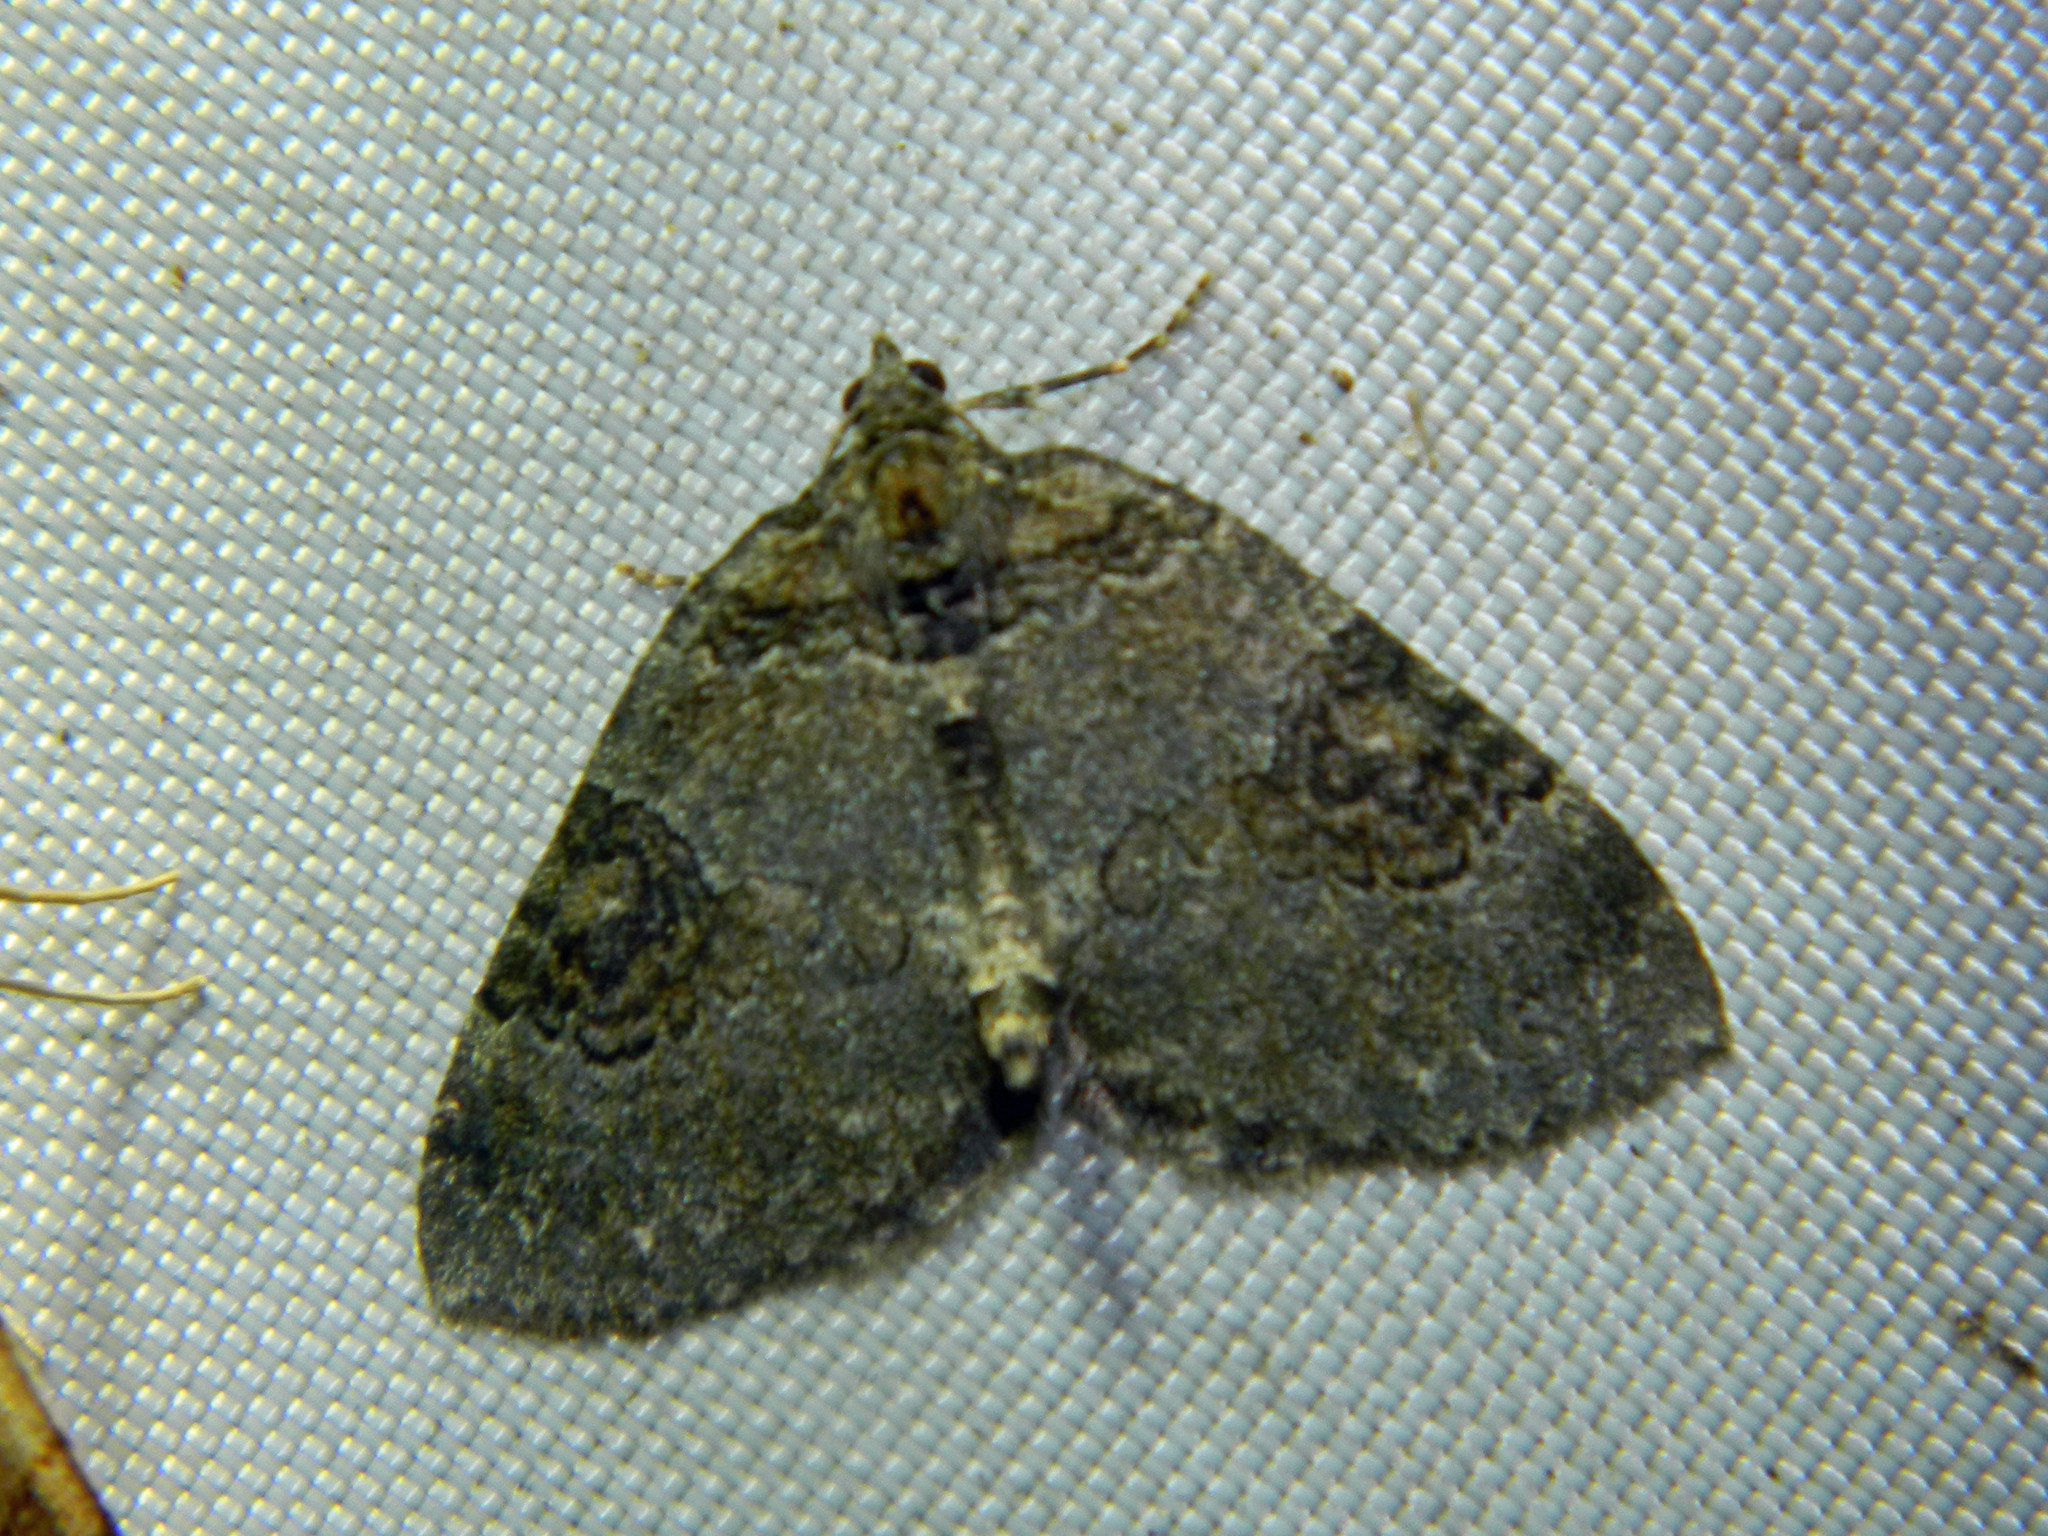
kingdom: Animalia
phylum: Arthropoda
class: Insecta
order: Lepidoptera
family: Geometridae
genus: Plemyria
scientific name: Plemyria georgii
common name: George's carpet moth
